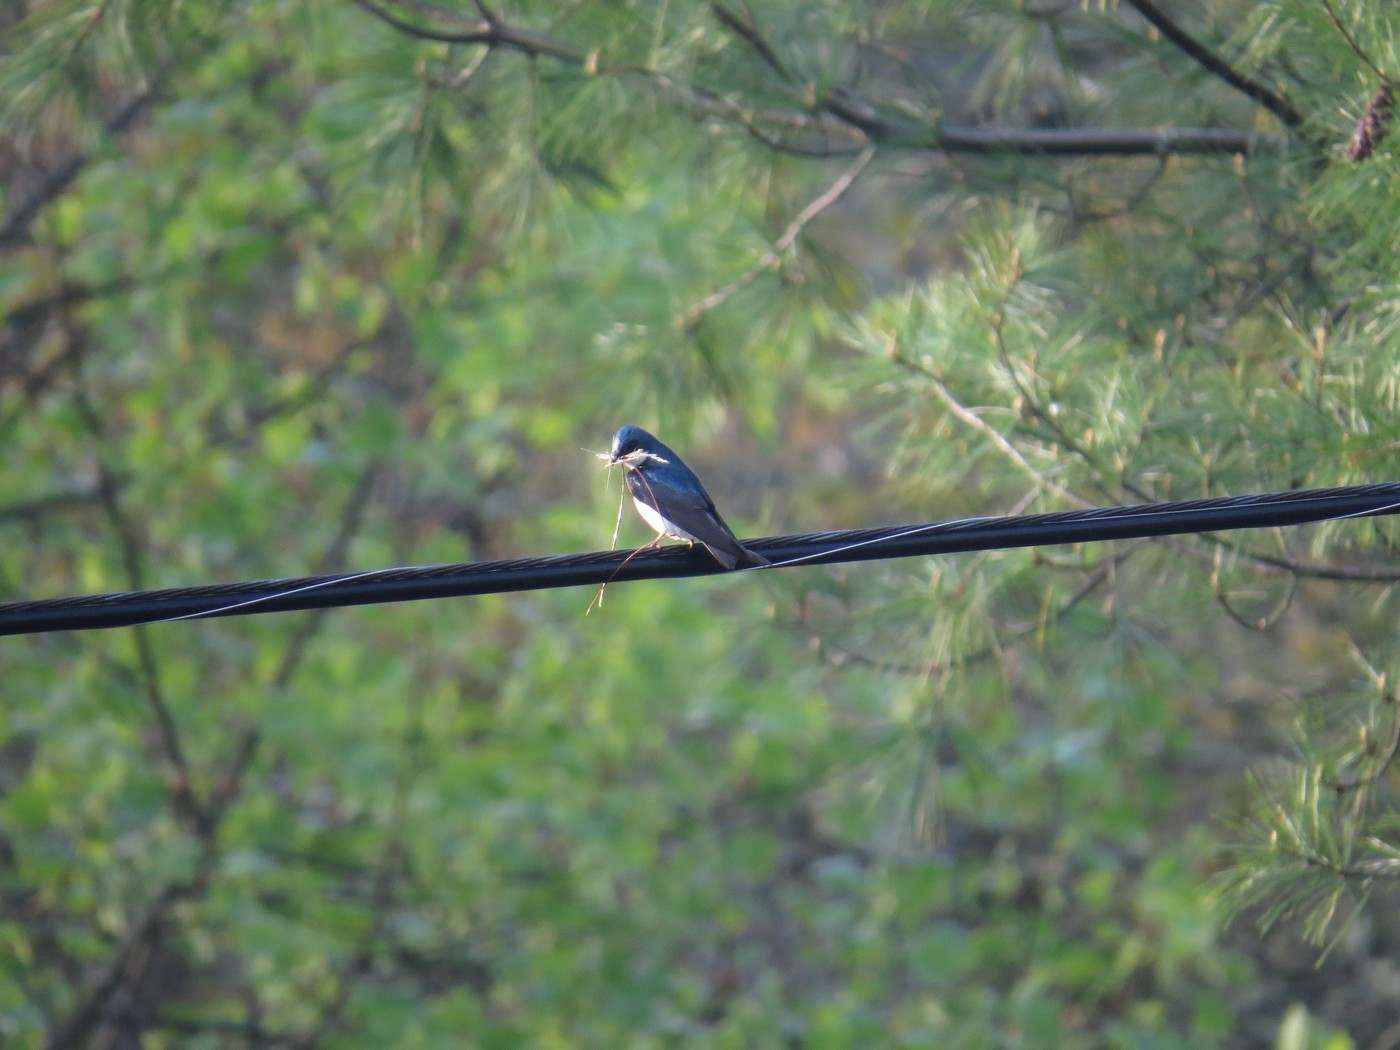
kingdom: Animalia
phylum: Chordata
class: Aves
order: Passeriformes
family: Hirundinidae
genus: Tachycineta
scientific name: Tachycineta bicolor
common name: Tree swallow
